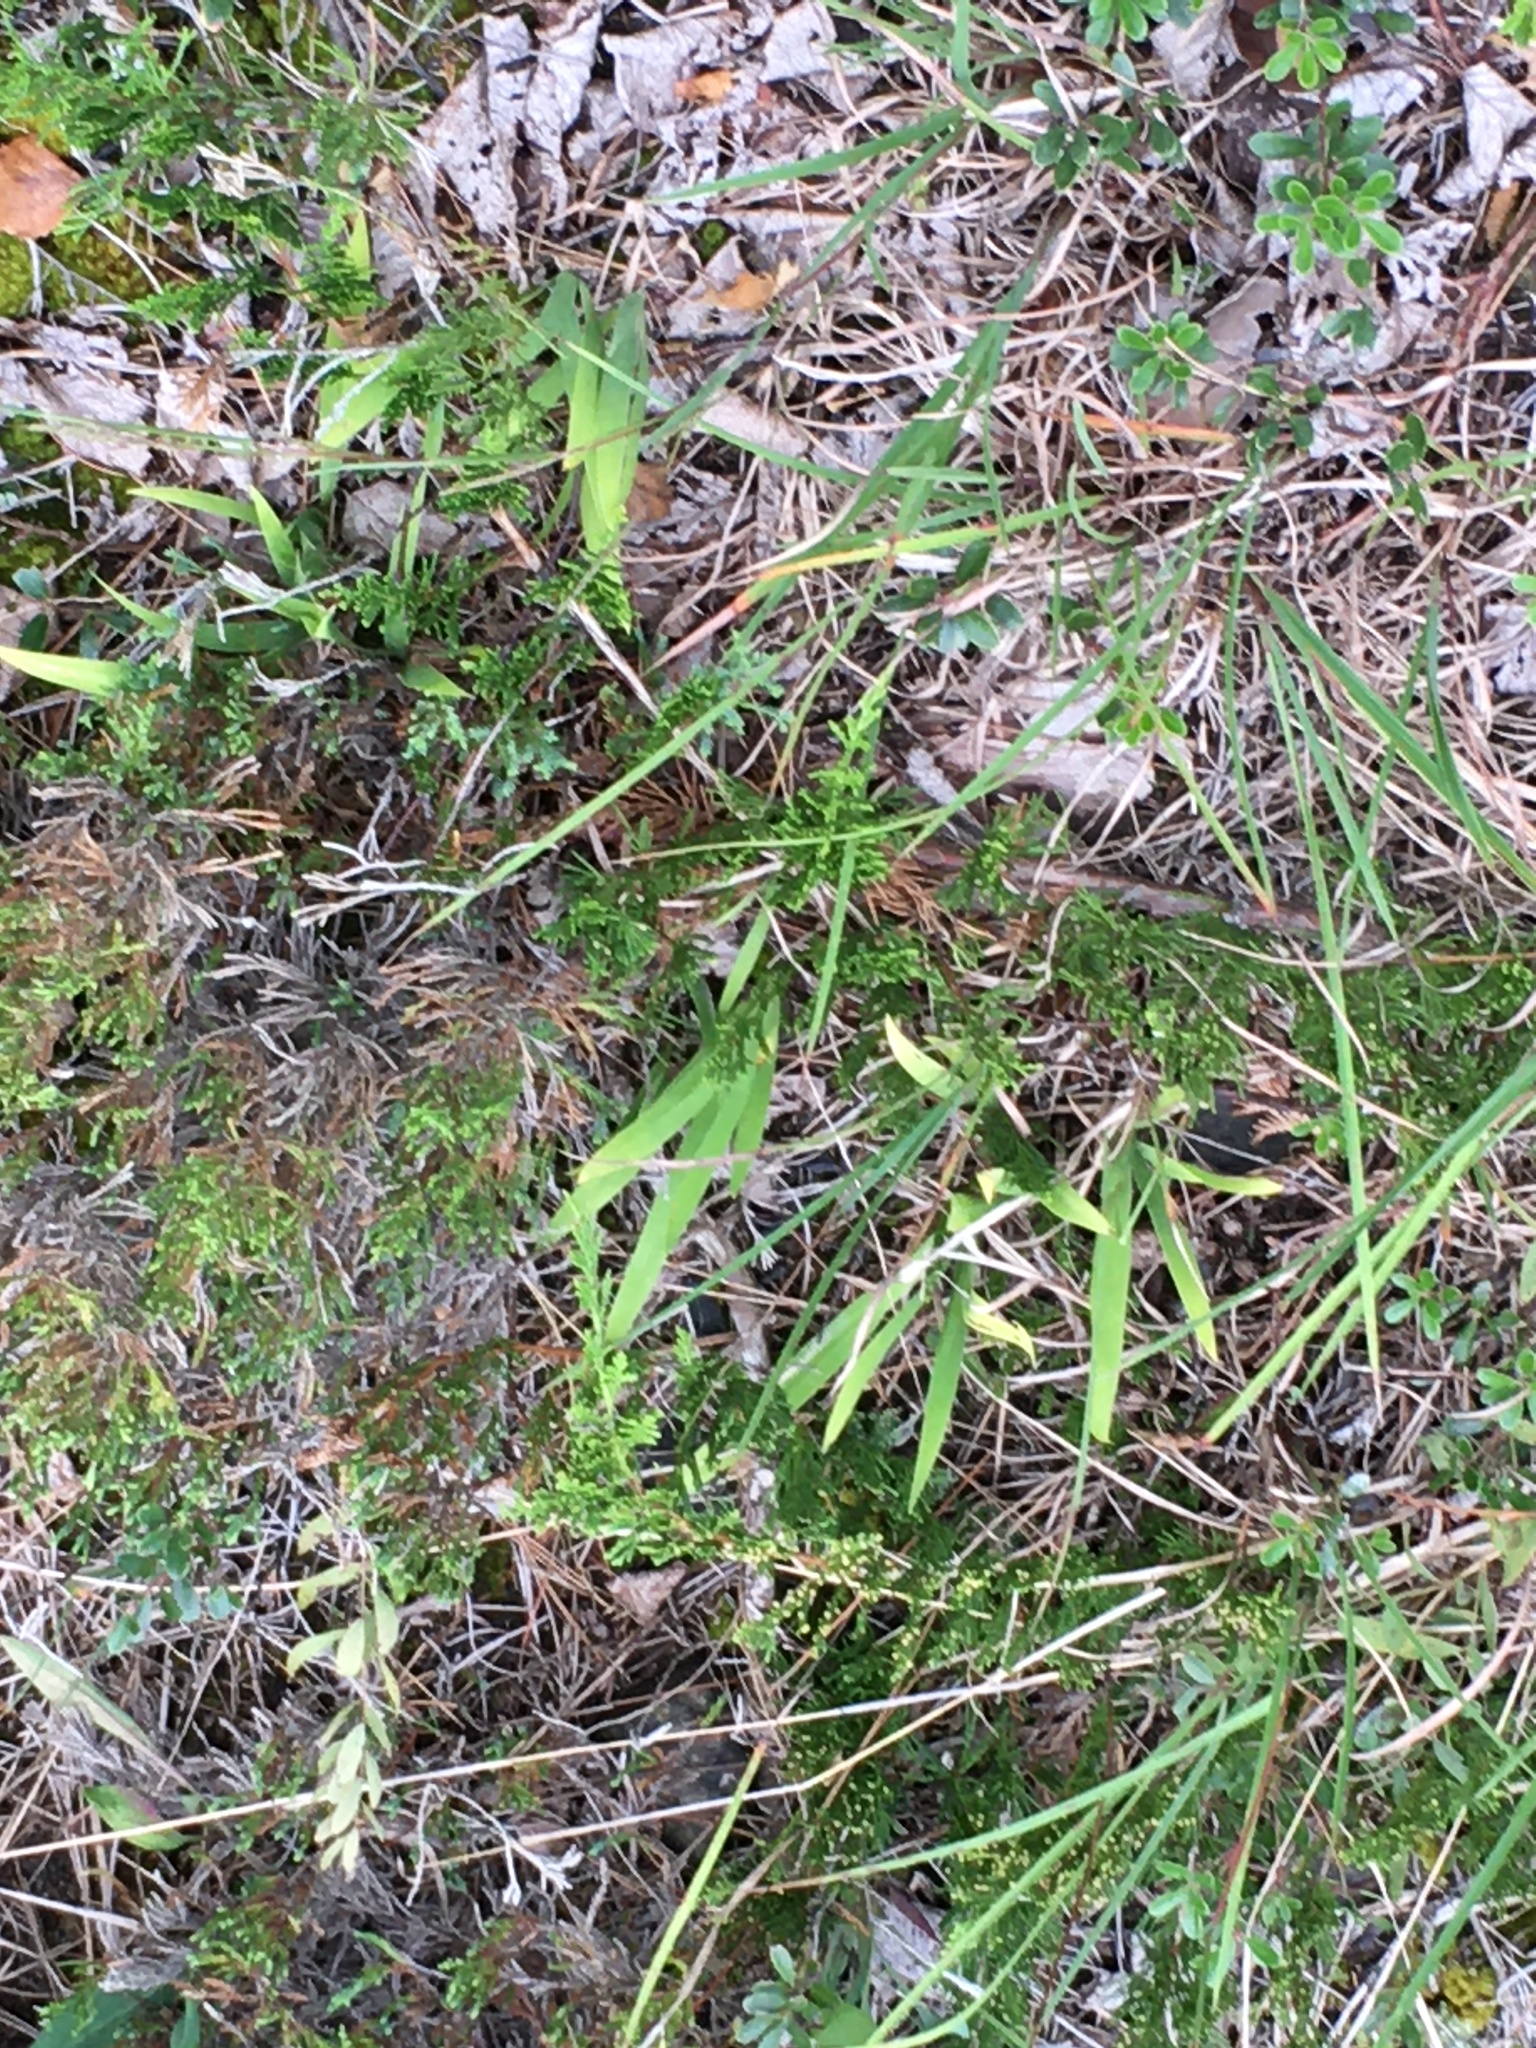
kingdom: Plantae
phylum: Tracheophyta
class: Liliopsida
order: Asparagales
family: Iridaceae
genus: Iris
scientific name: Iris lacustris
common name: Dwarf lake iris
